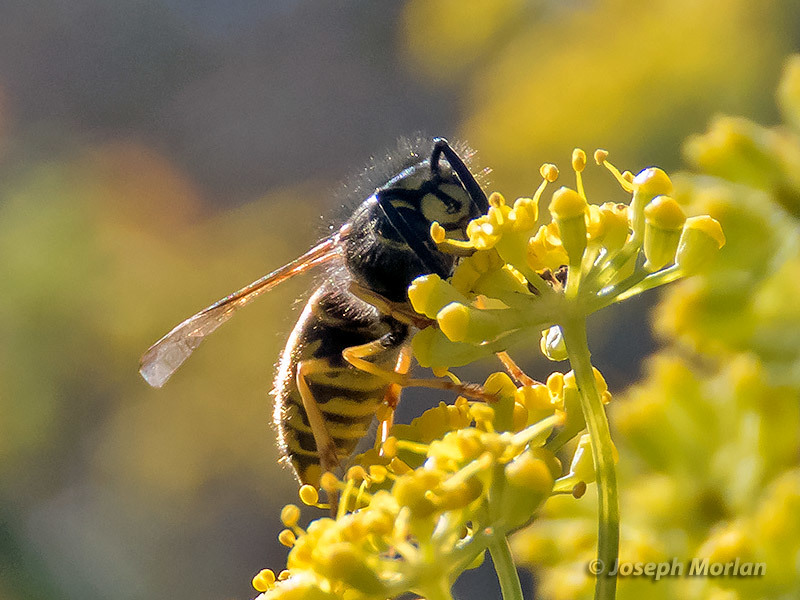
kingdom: Animalia
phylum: Arthropoda
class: Insecta
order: Hymenoptera
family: Vespidae
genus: Vespula
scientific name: Vespula alascensis
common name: Alaska yellowjacket
